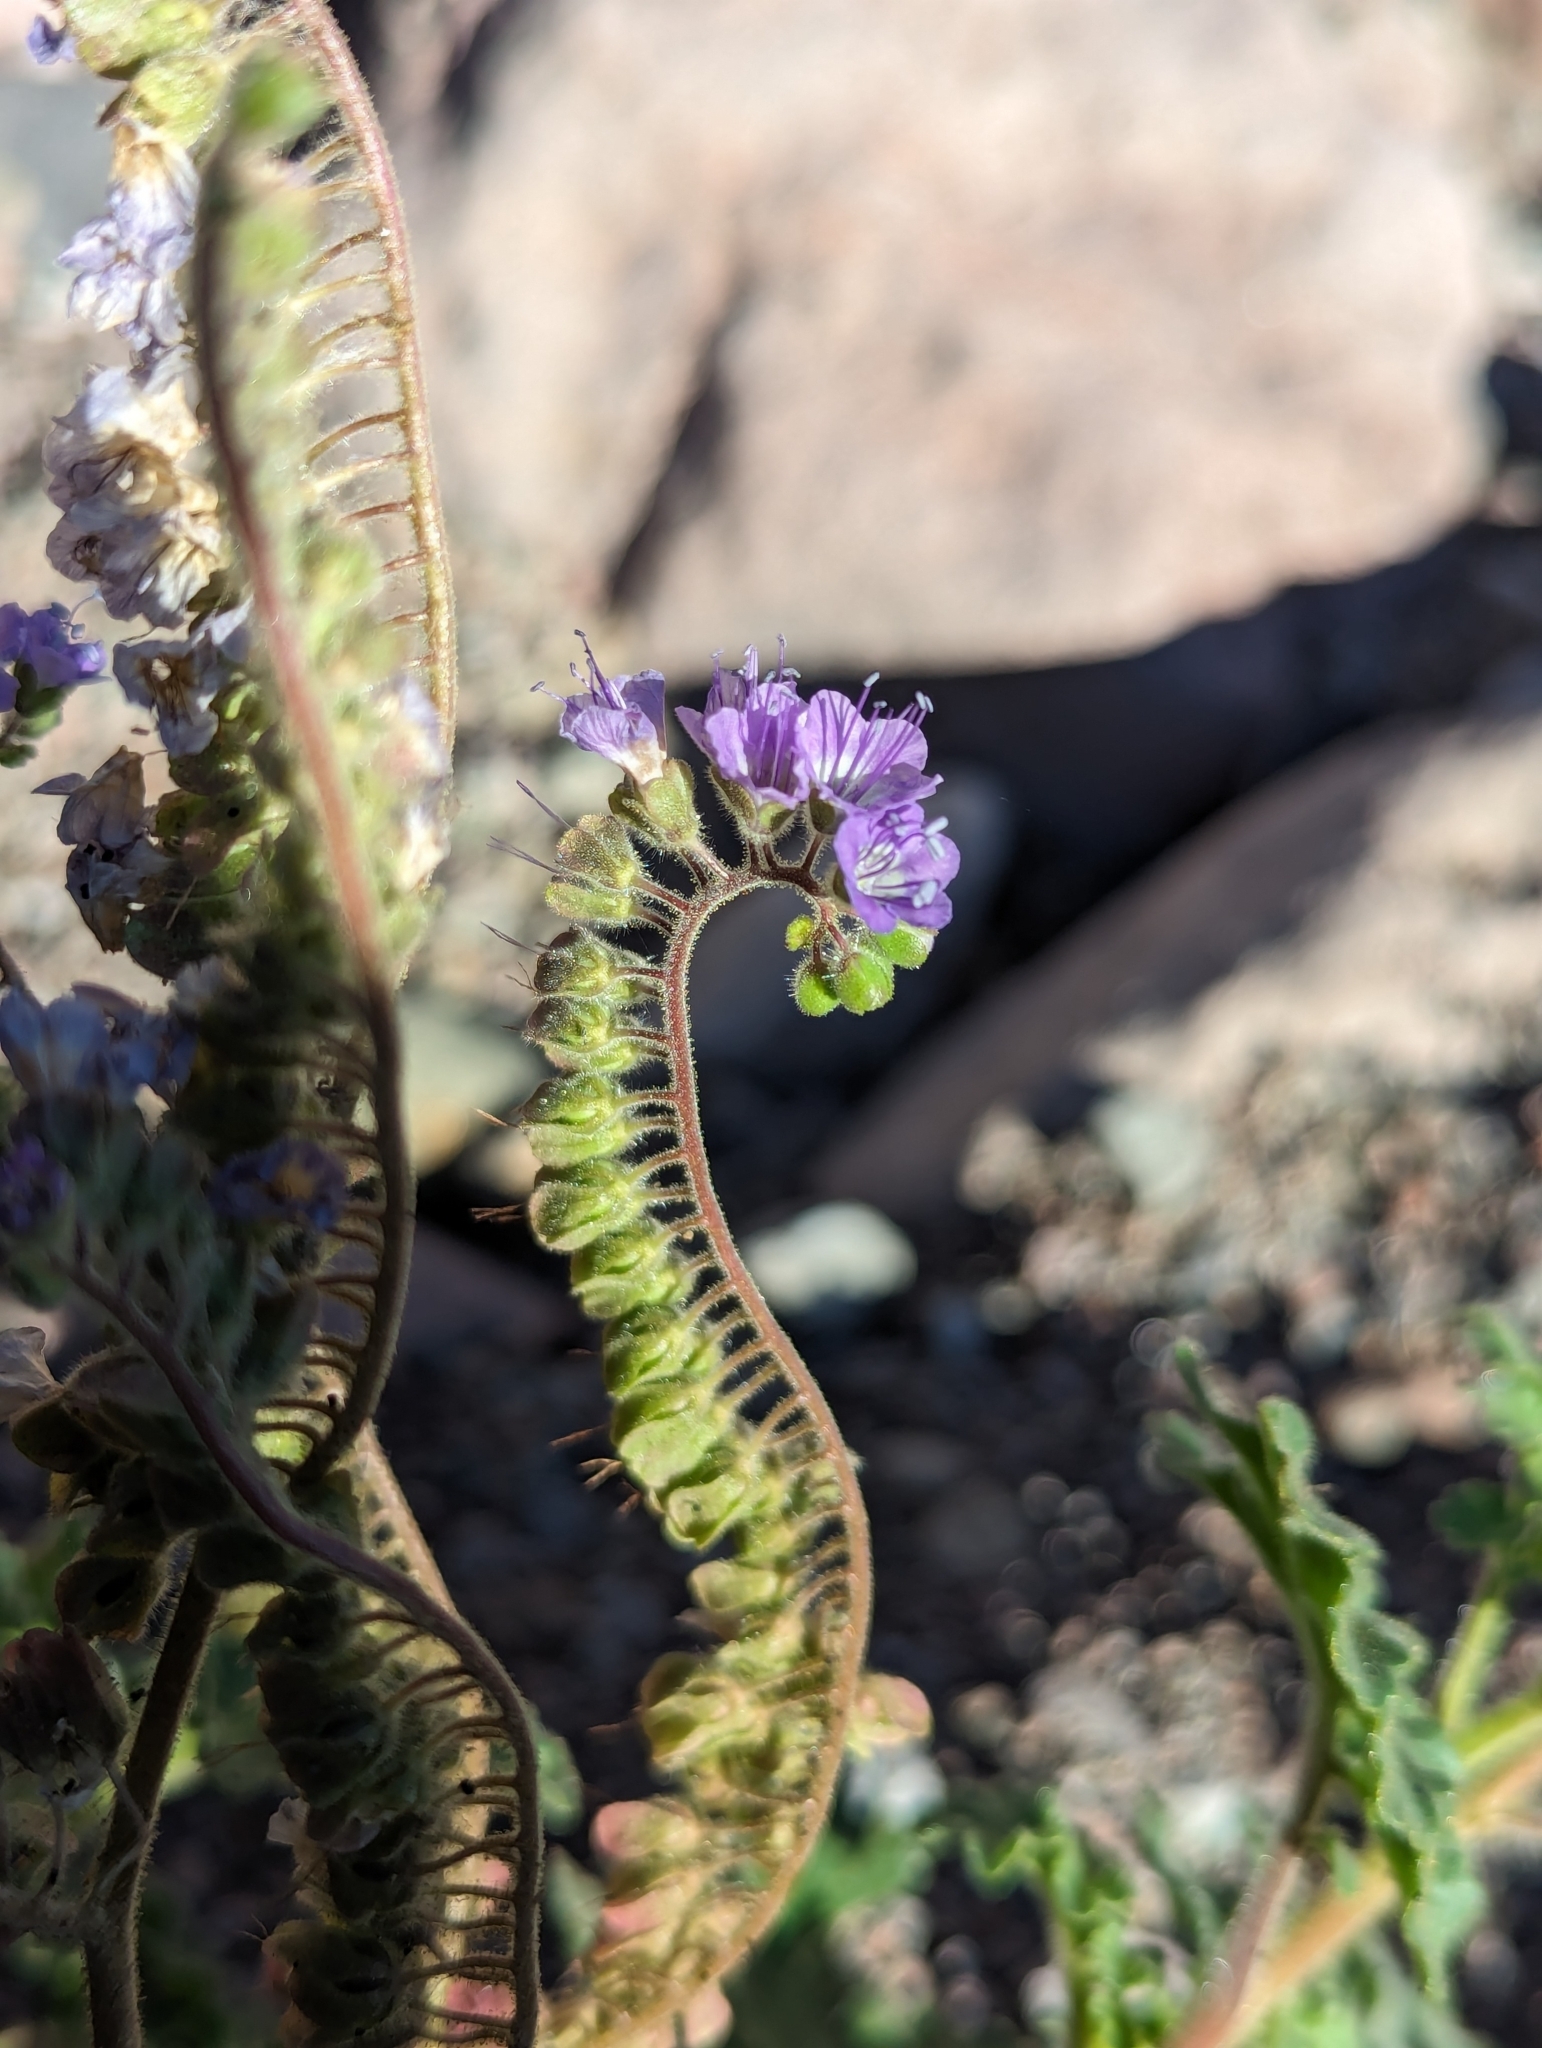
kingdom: Plantae
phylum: Tracheophyta
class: Magnoliopsida
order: Boraginales
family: Hydrophyllaceae
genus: Phacelia
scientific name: Phacelia scariosa
